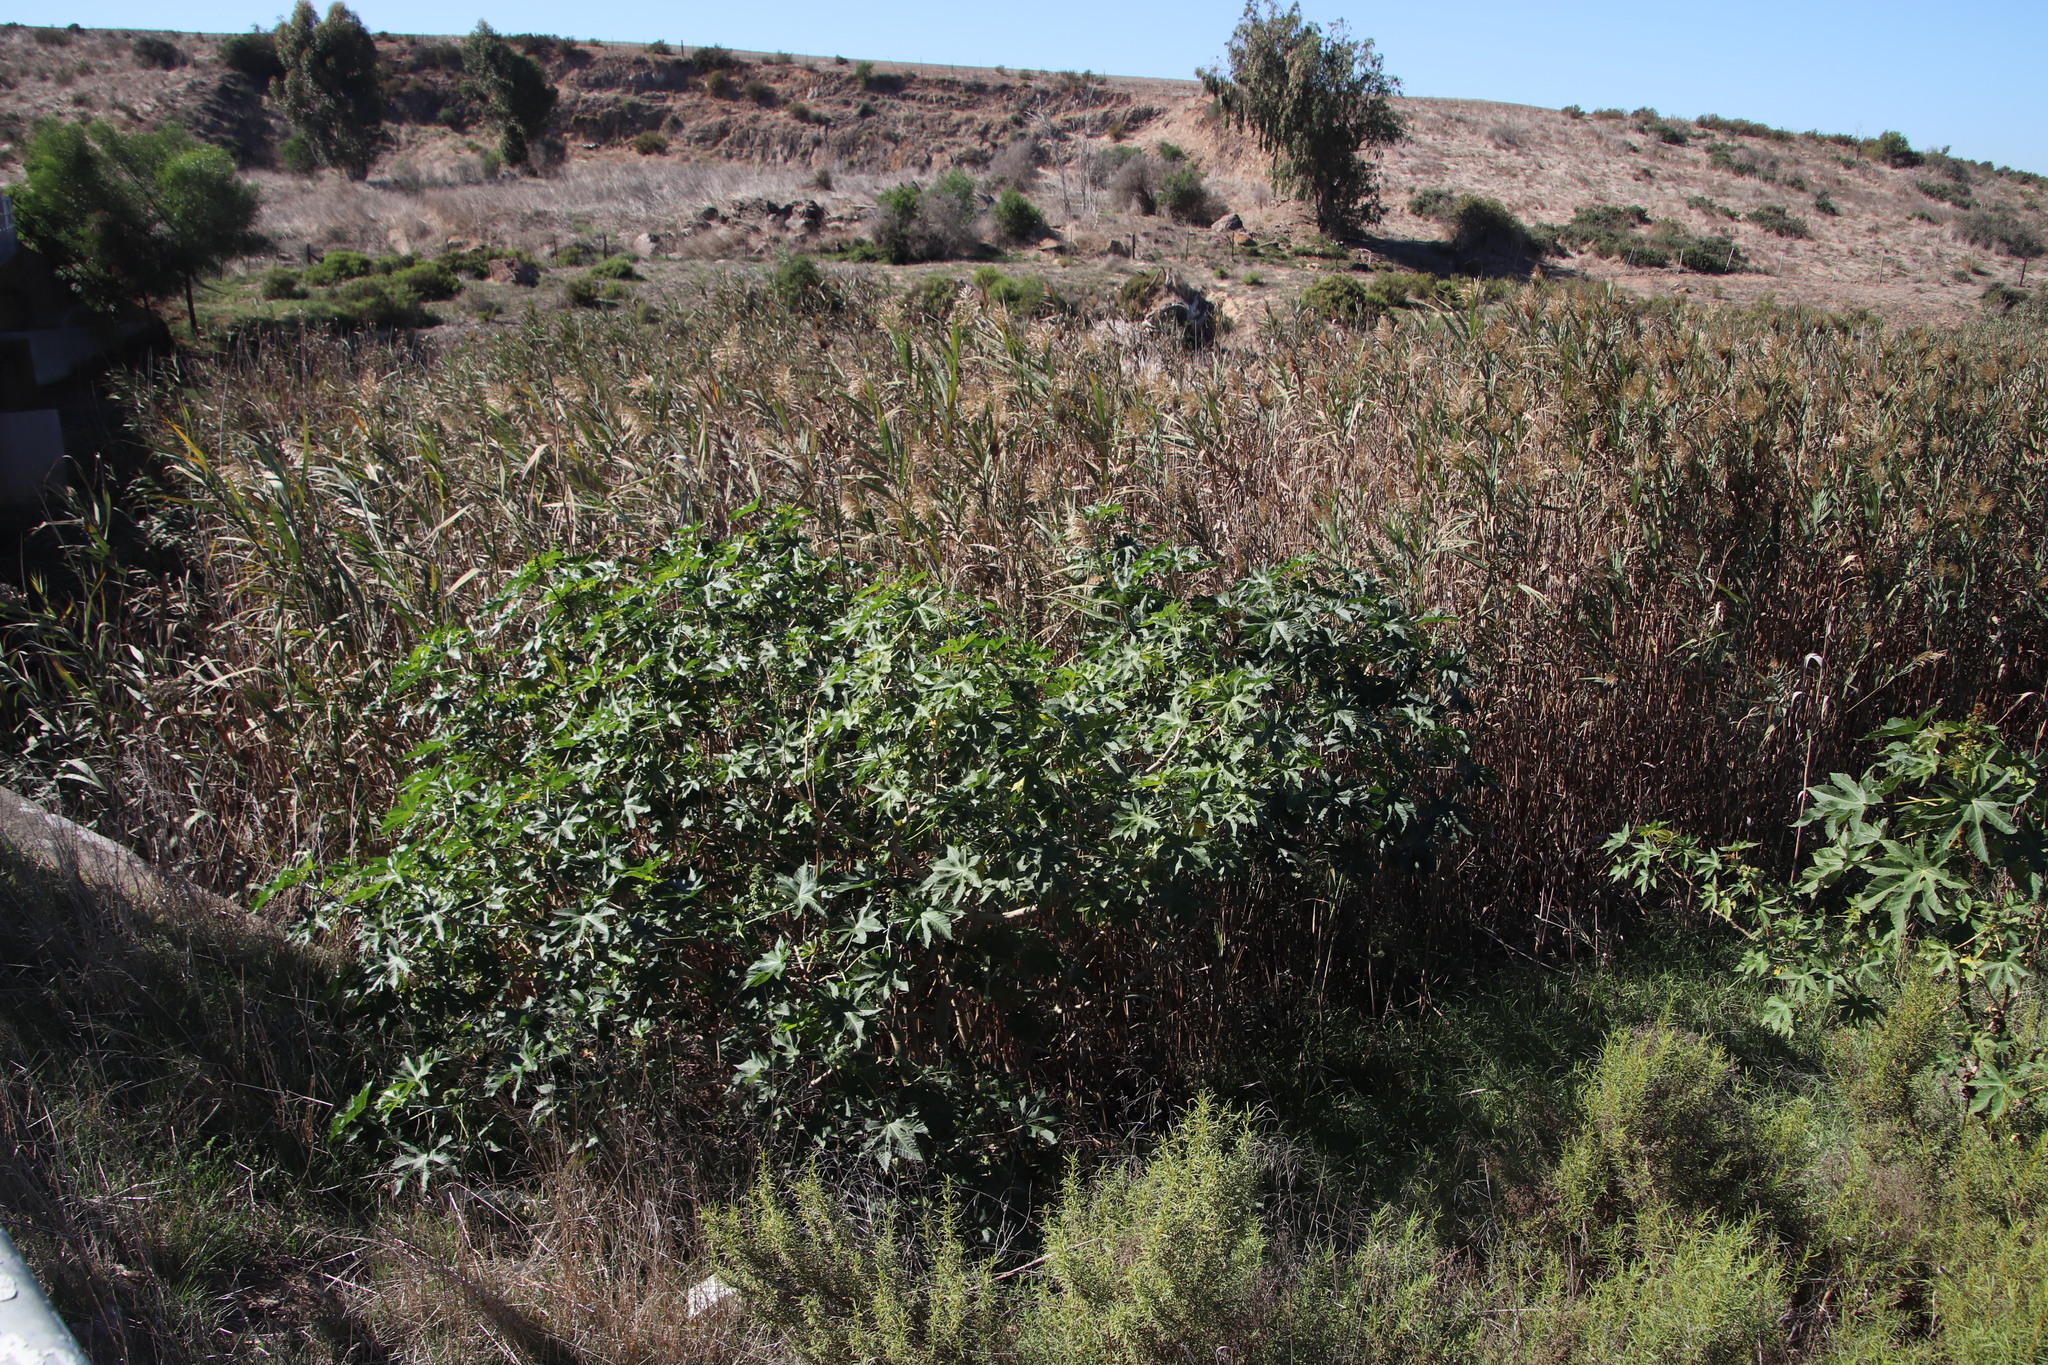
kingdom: Plantae
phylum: Tracheophyta
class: Magnoliopsida
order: Malpighiales
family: Euphorbiaceae
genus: Ricinus
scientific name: Ricinus communis
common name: Castor-oil-plant
